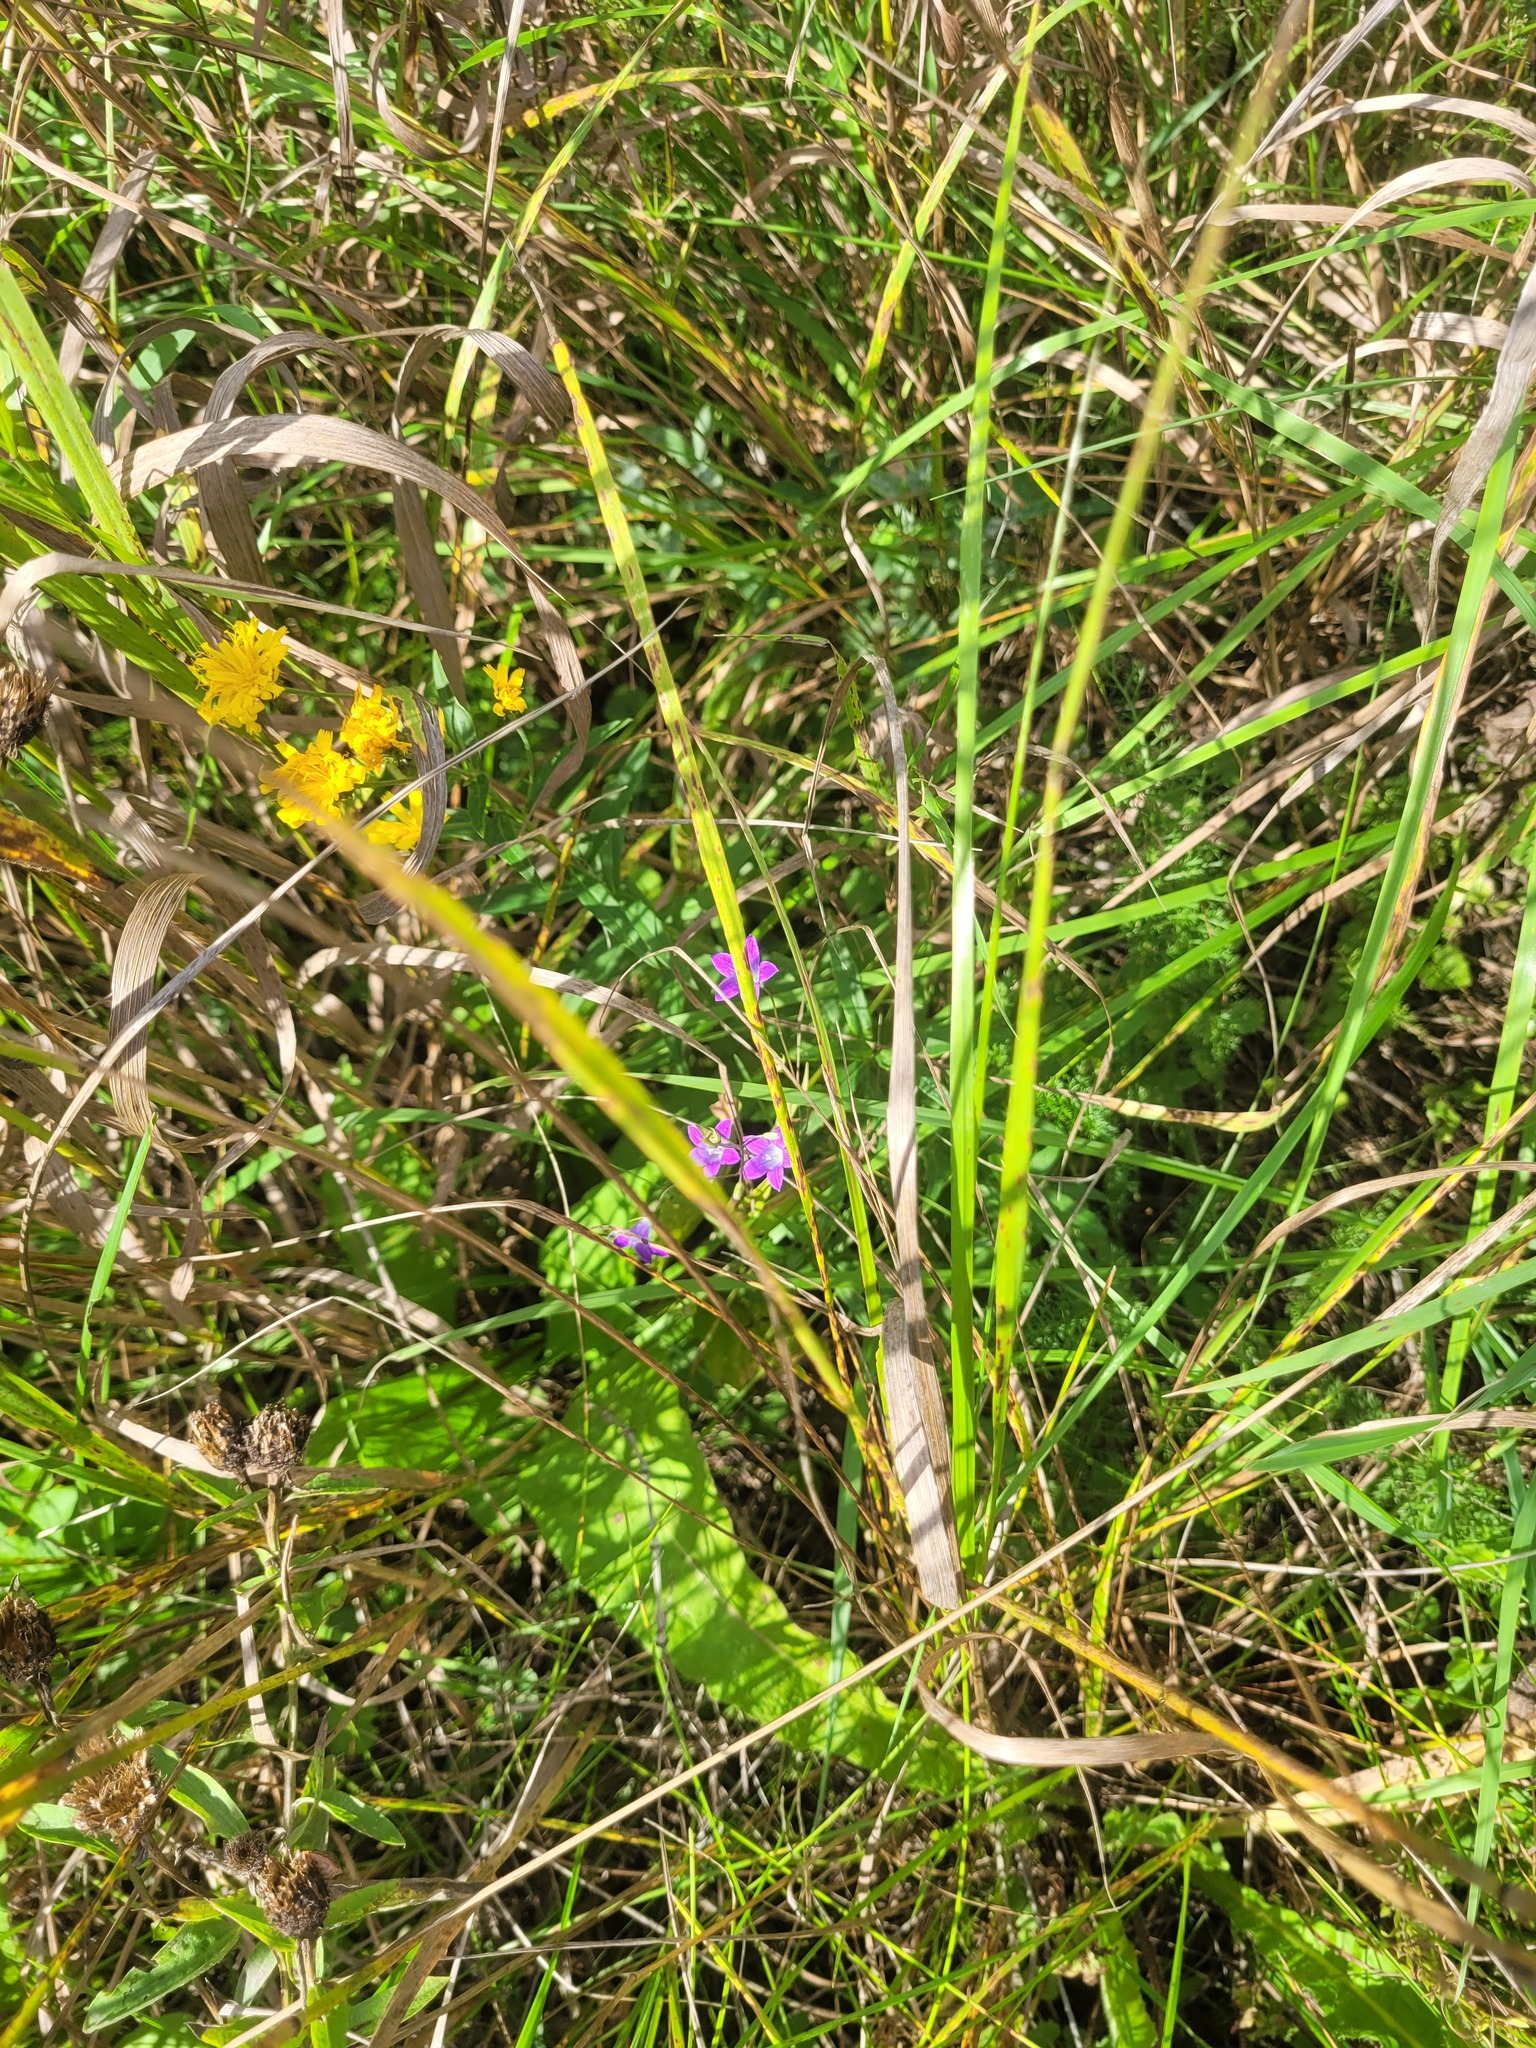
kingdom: Plantae
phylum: Tracheophyta
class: Magnoliopsida
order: Asterales
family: Campanulaceae
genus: Campanula
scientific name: Campanula patula
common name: Spreading bellflower
